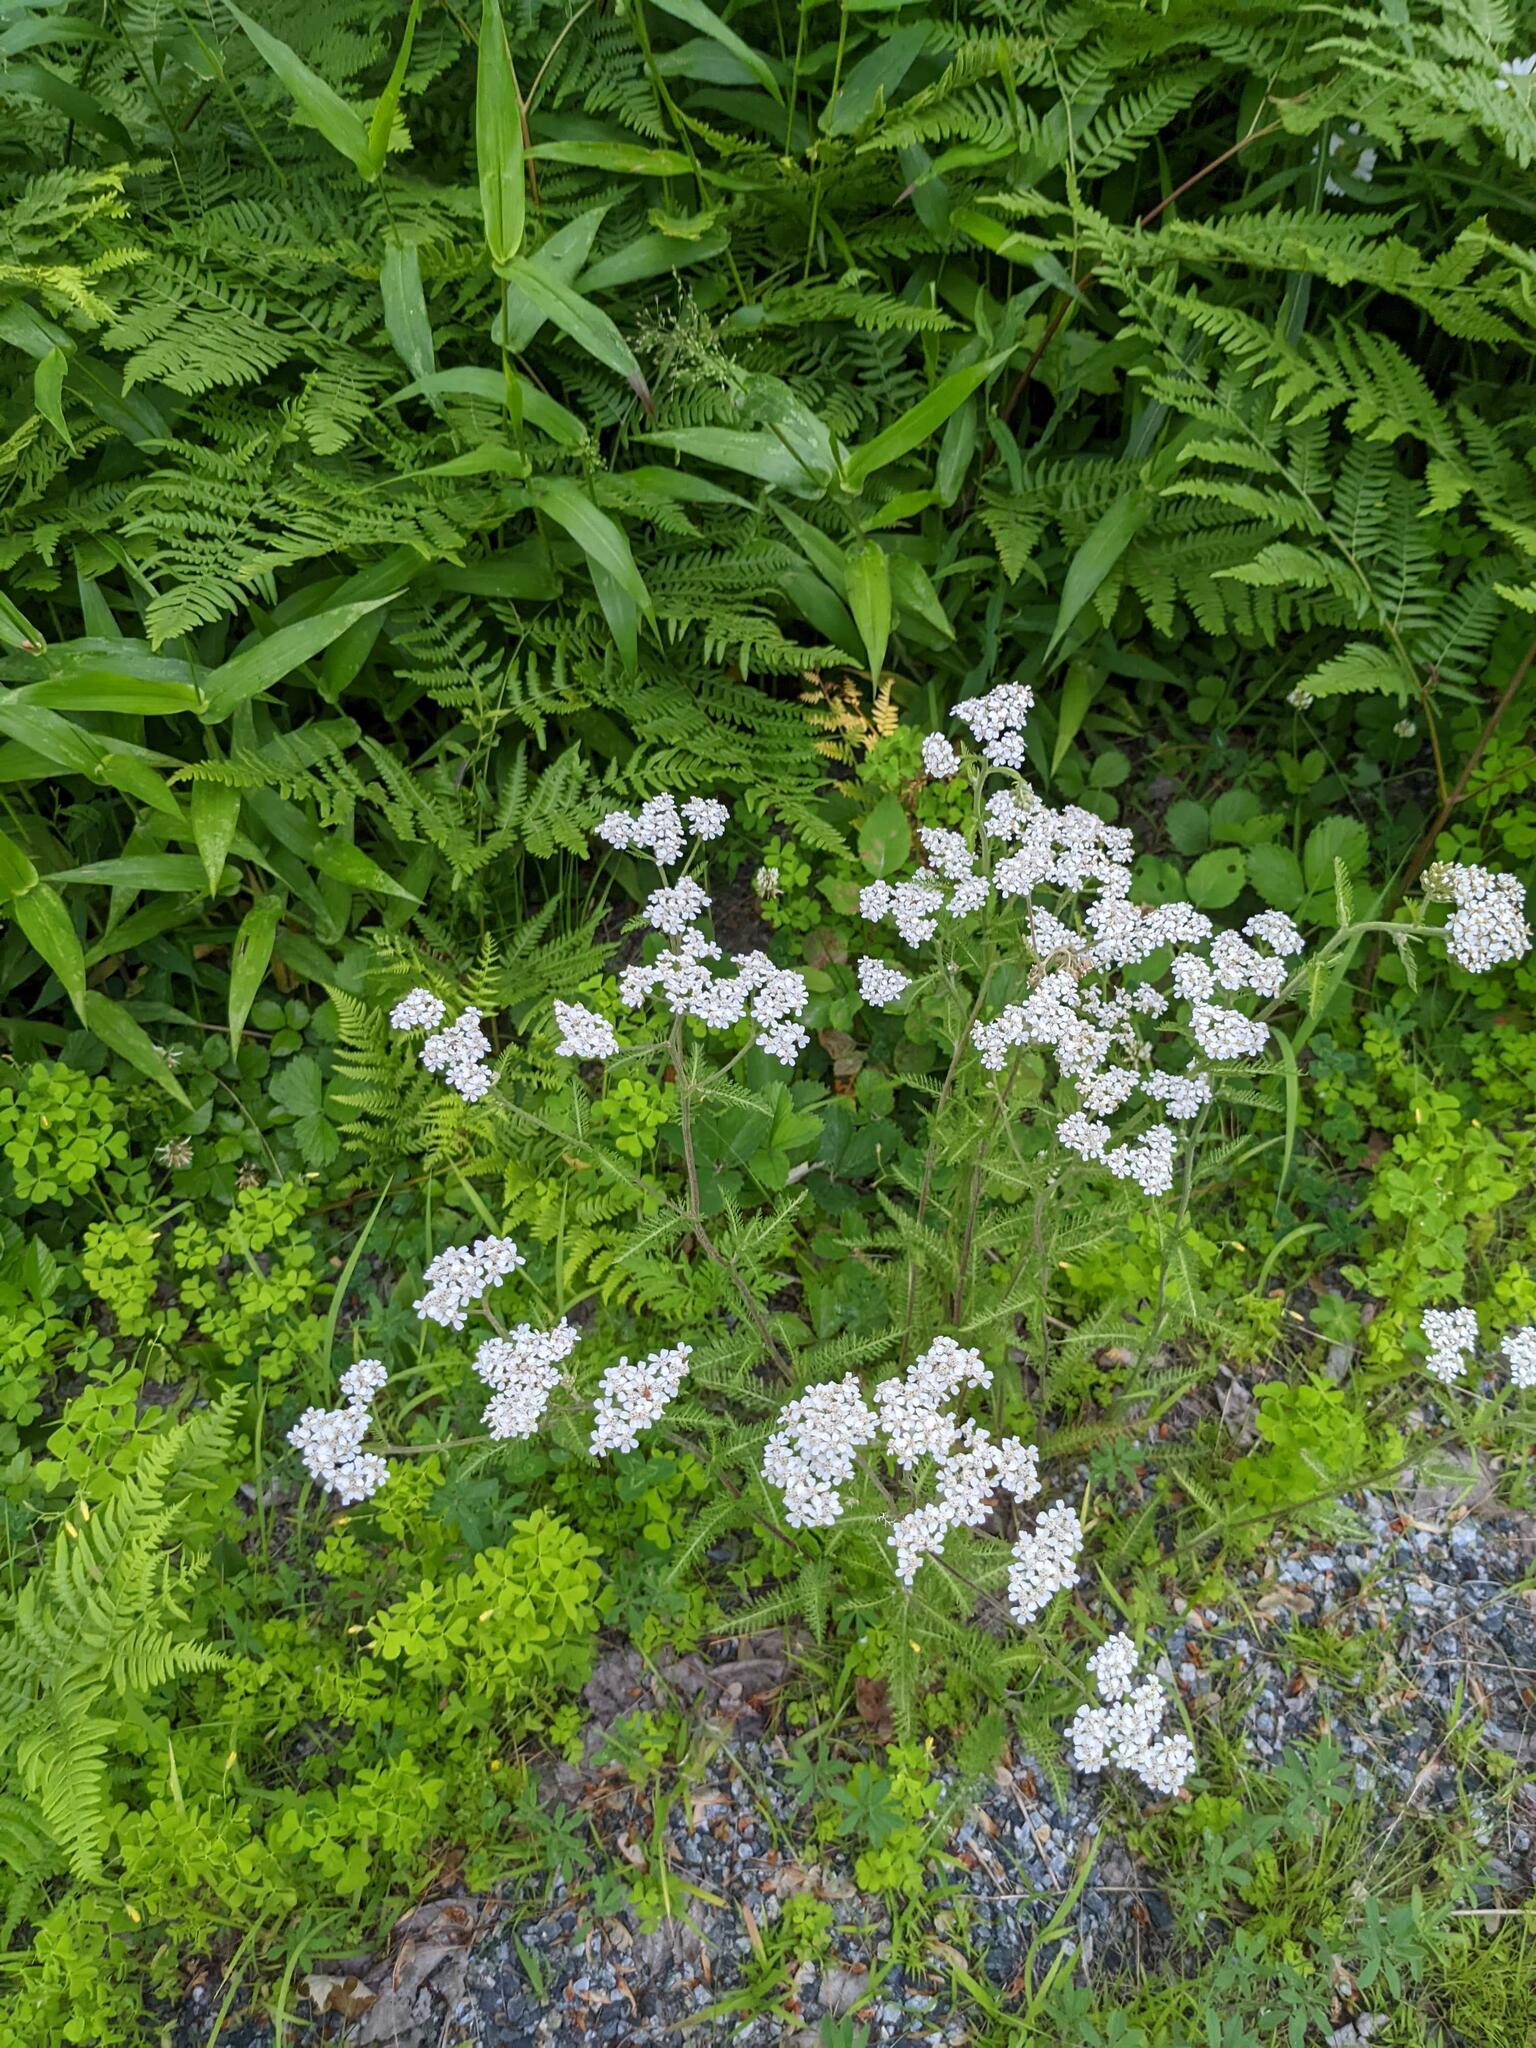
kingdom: Plantae
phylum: Tracheophyta
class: Magnoliopsida
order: Asterales
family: Asteraceae
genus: Achillea
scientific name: Achillea millefolium
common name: Yarrow
